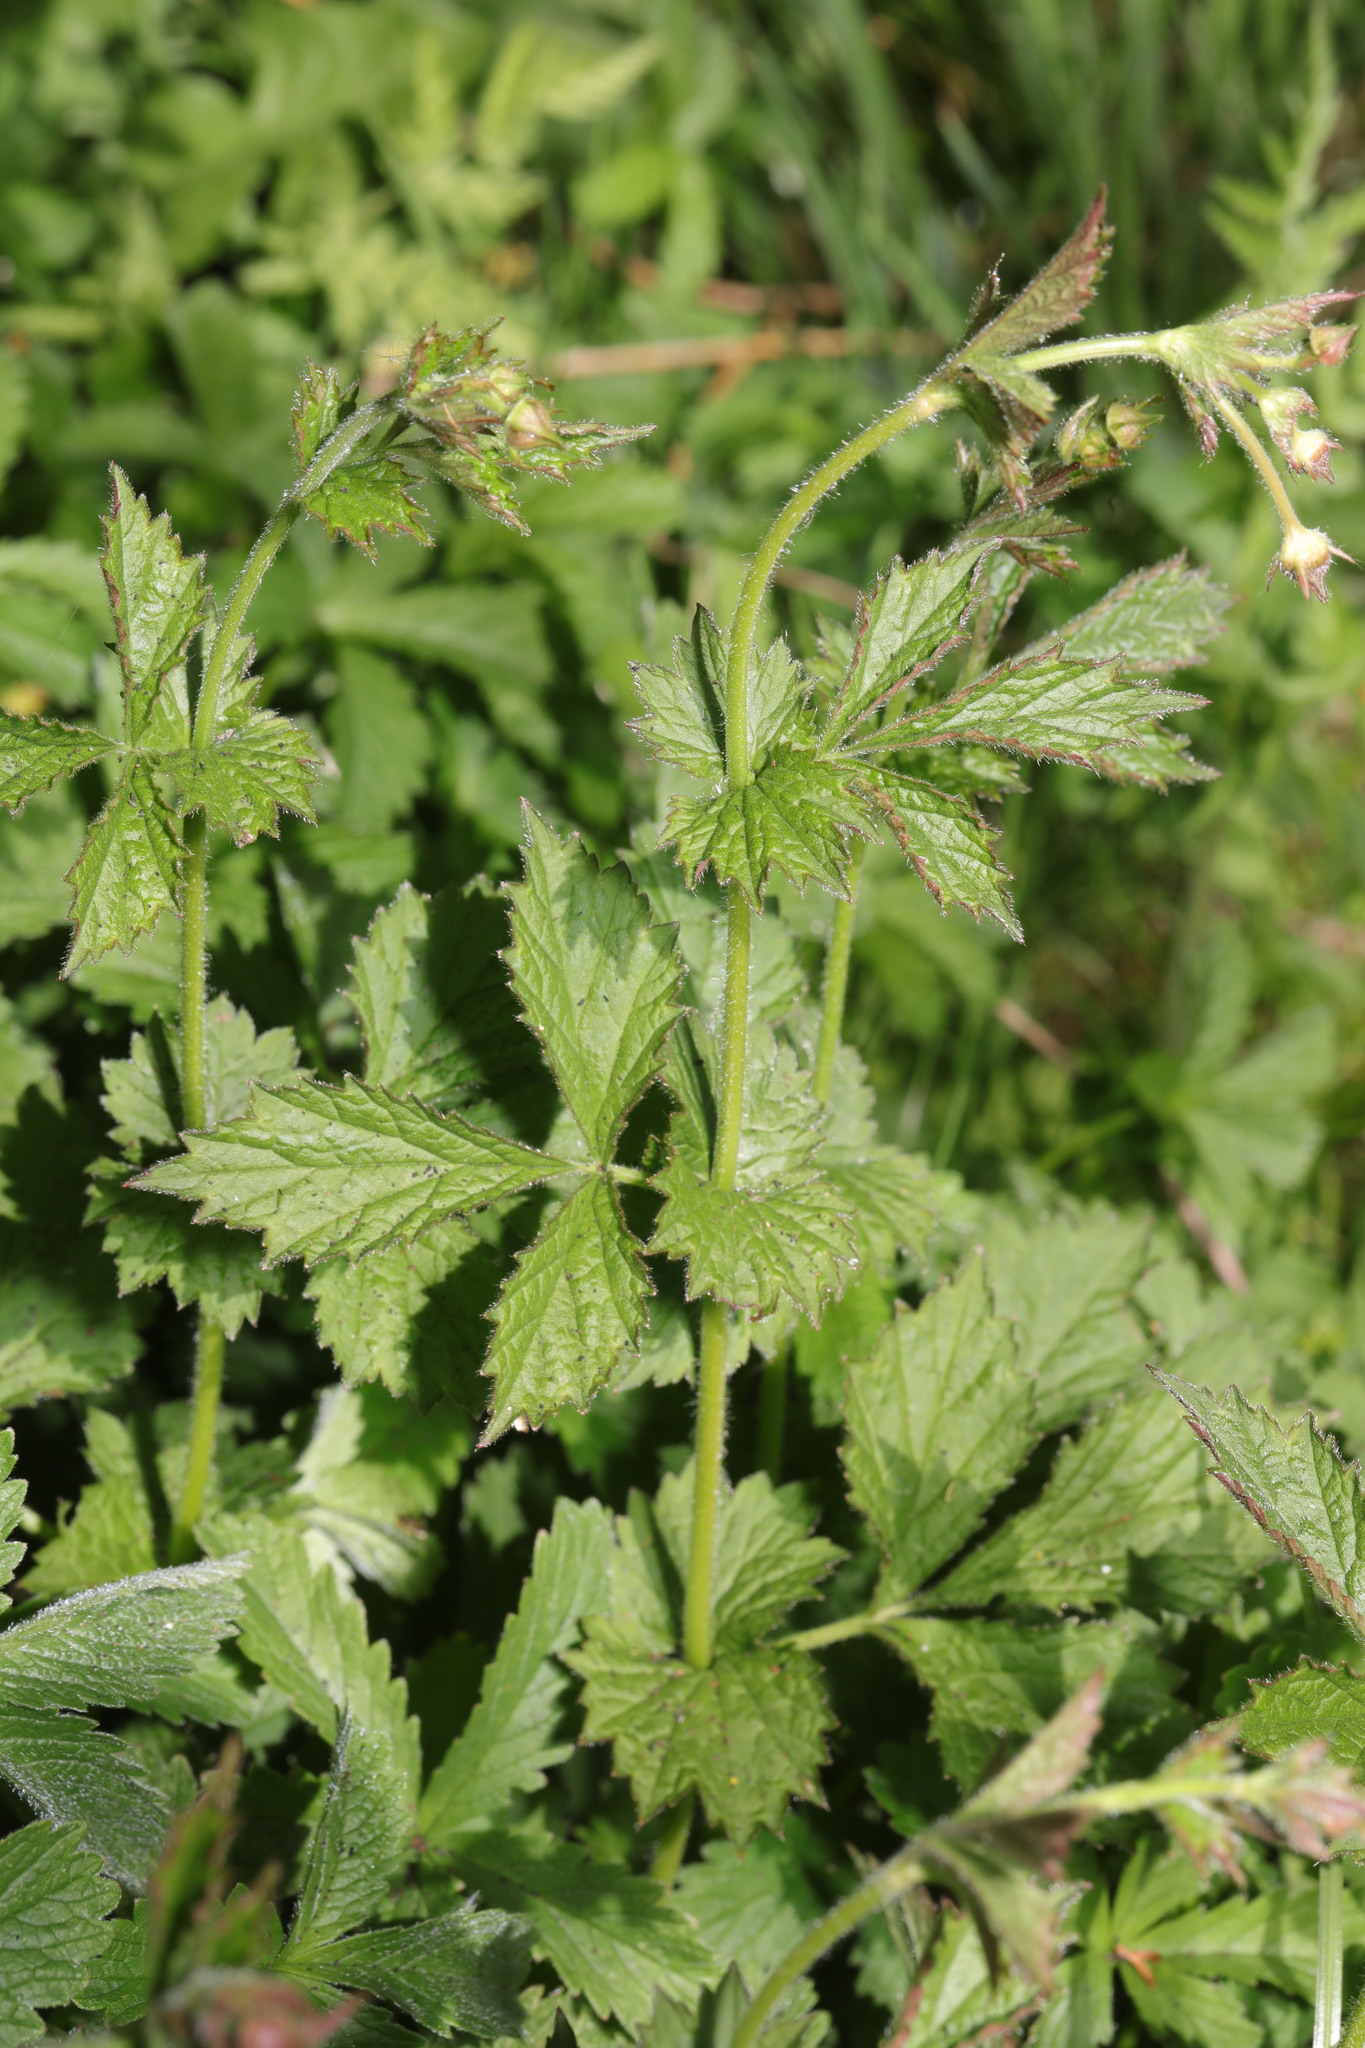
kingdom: Plantae
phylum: Tracheophyta
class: Magnoliopsida
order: Rosales
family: Rosaceae
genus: Geum
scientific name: Geum urbanum
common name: Wood avens
